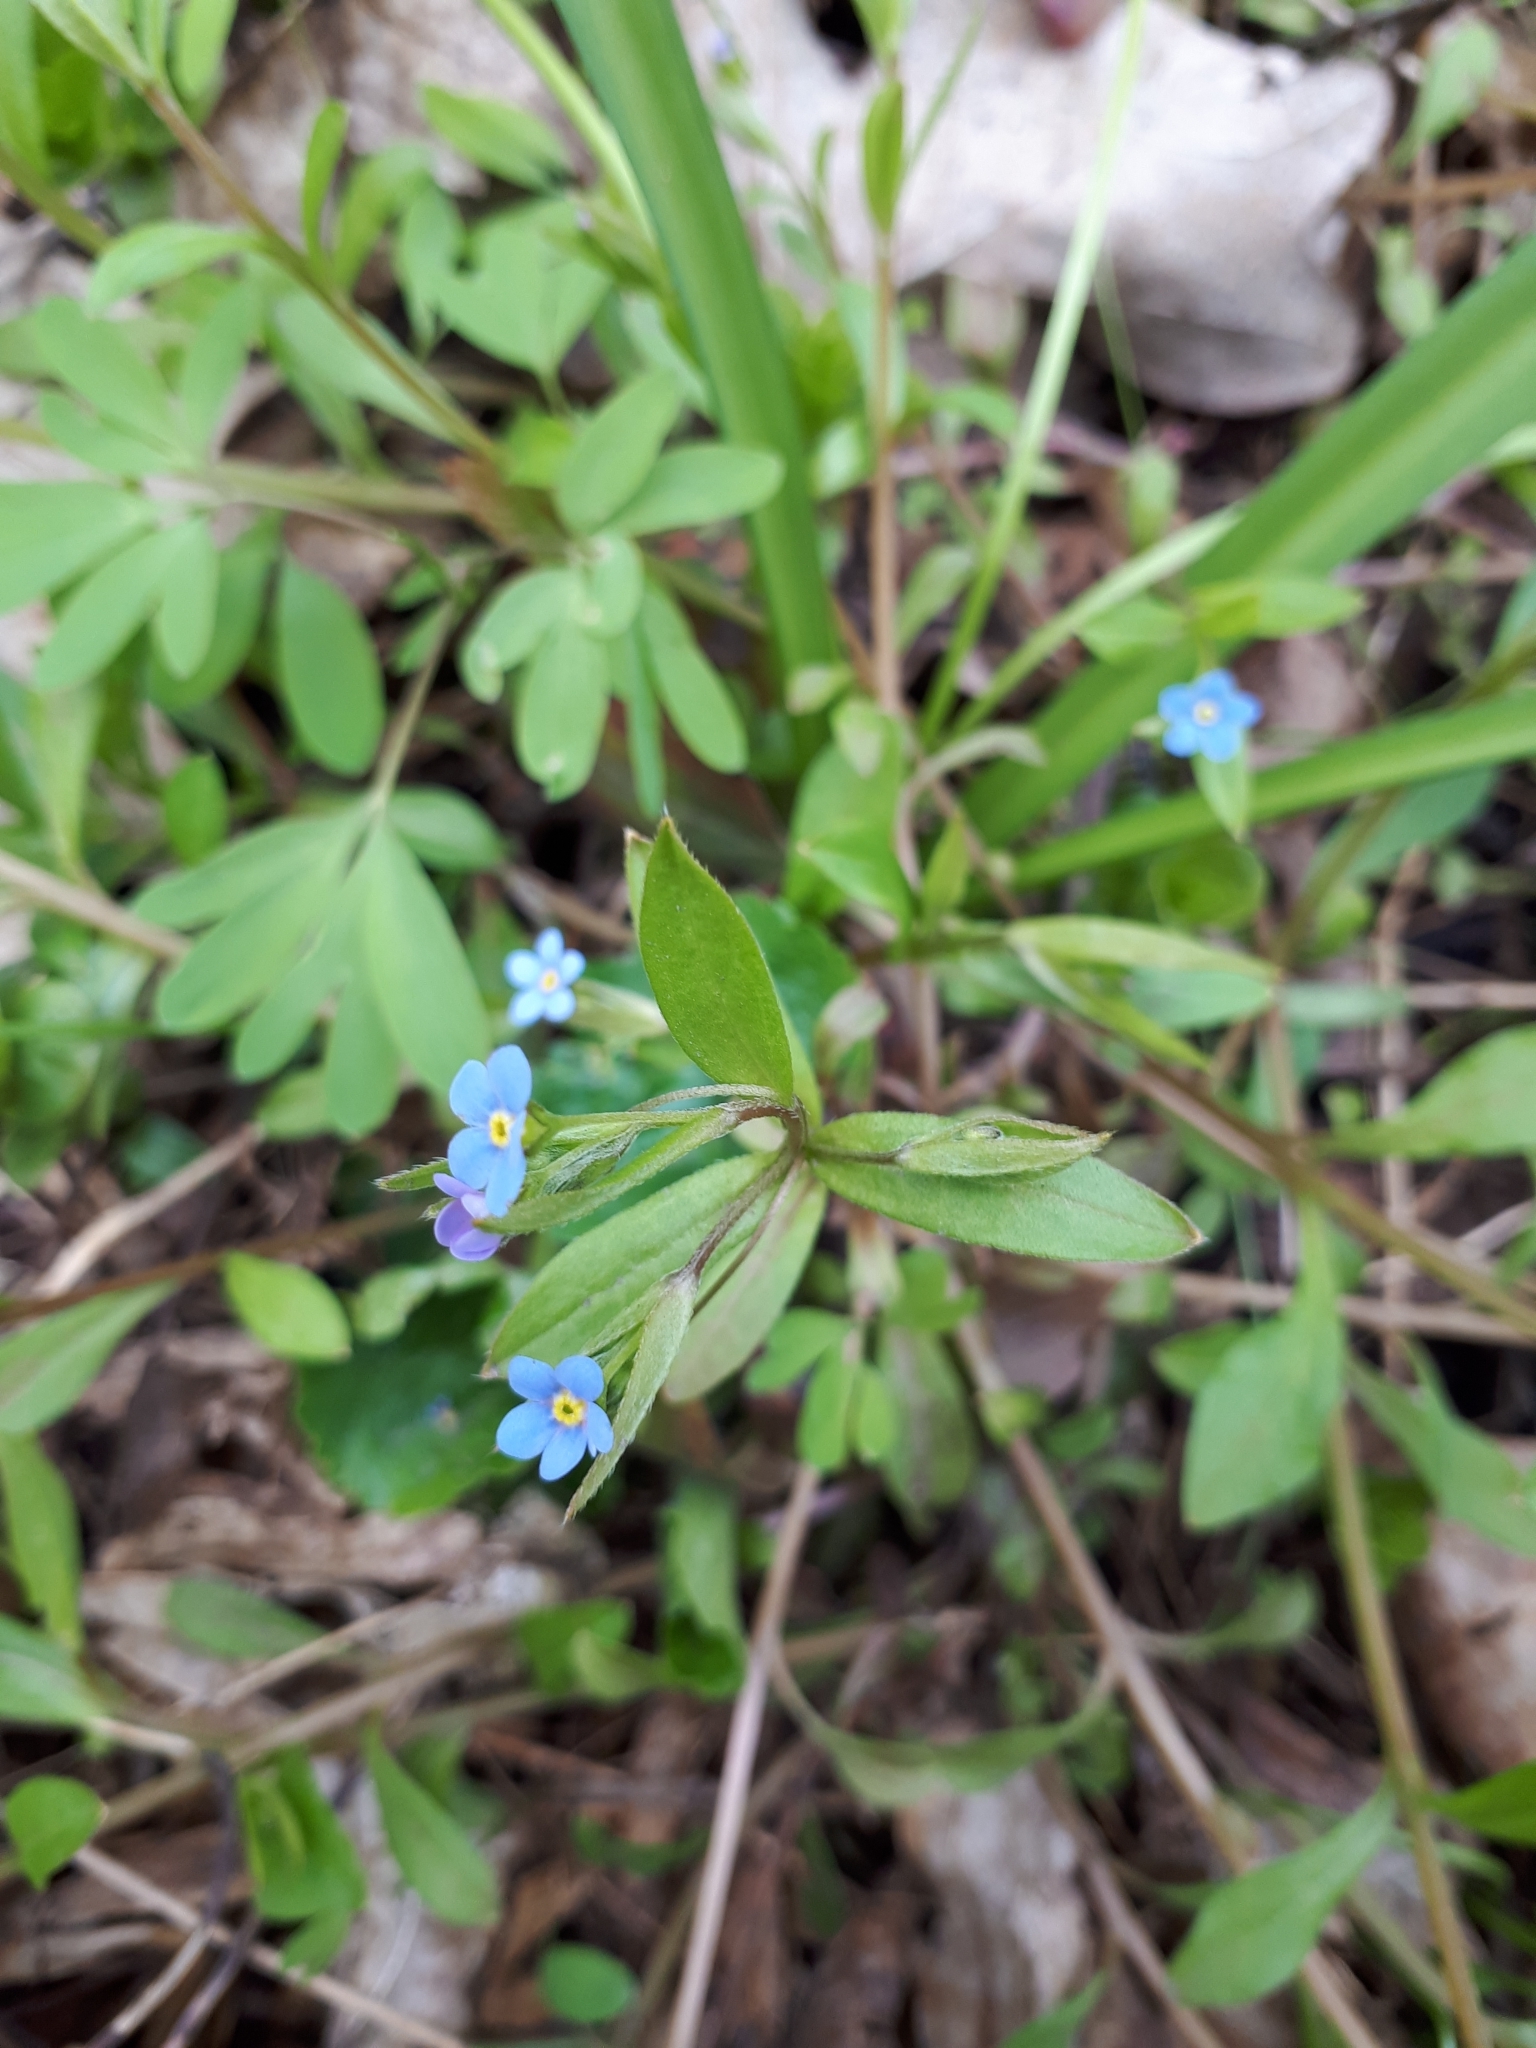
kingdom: Plantae
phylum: Tracheophyta
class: Magnoliopsida
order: Boraginales
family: Boraginaceae
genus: Memoremea
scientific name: Memoremea scorpioides
